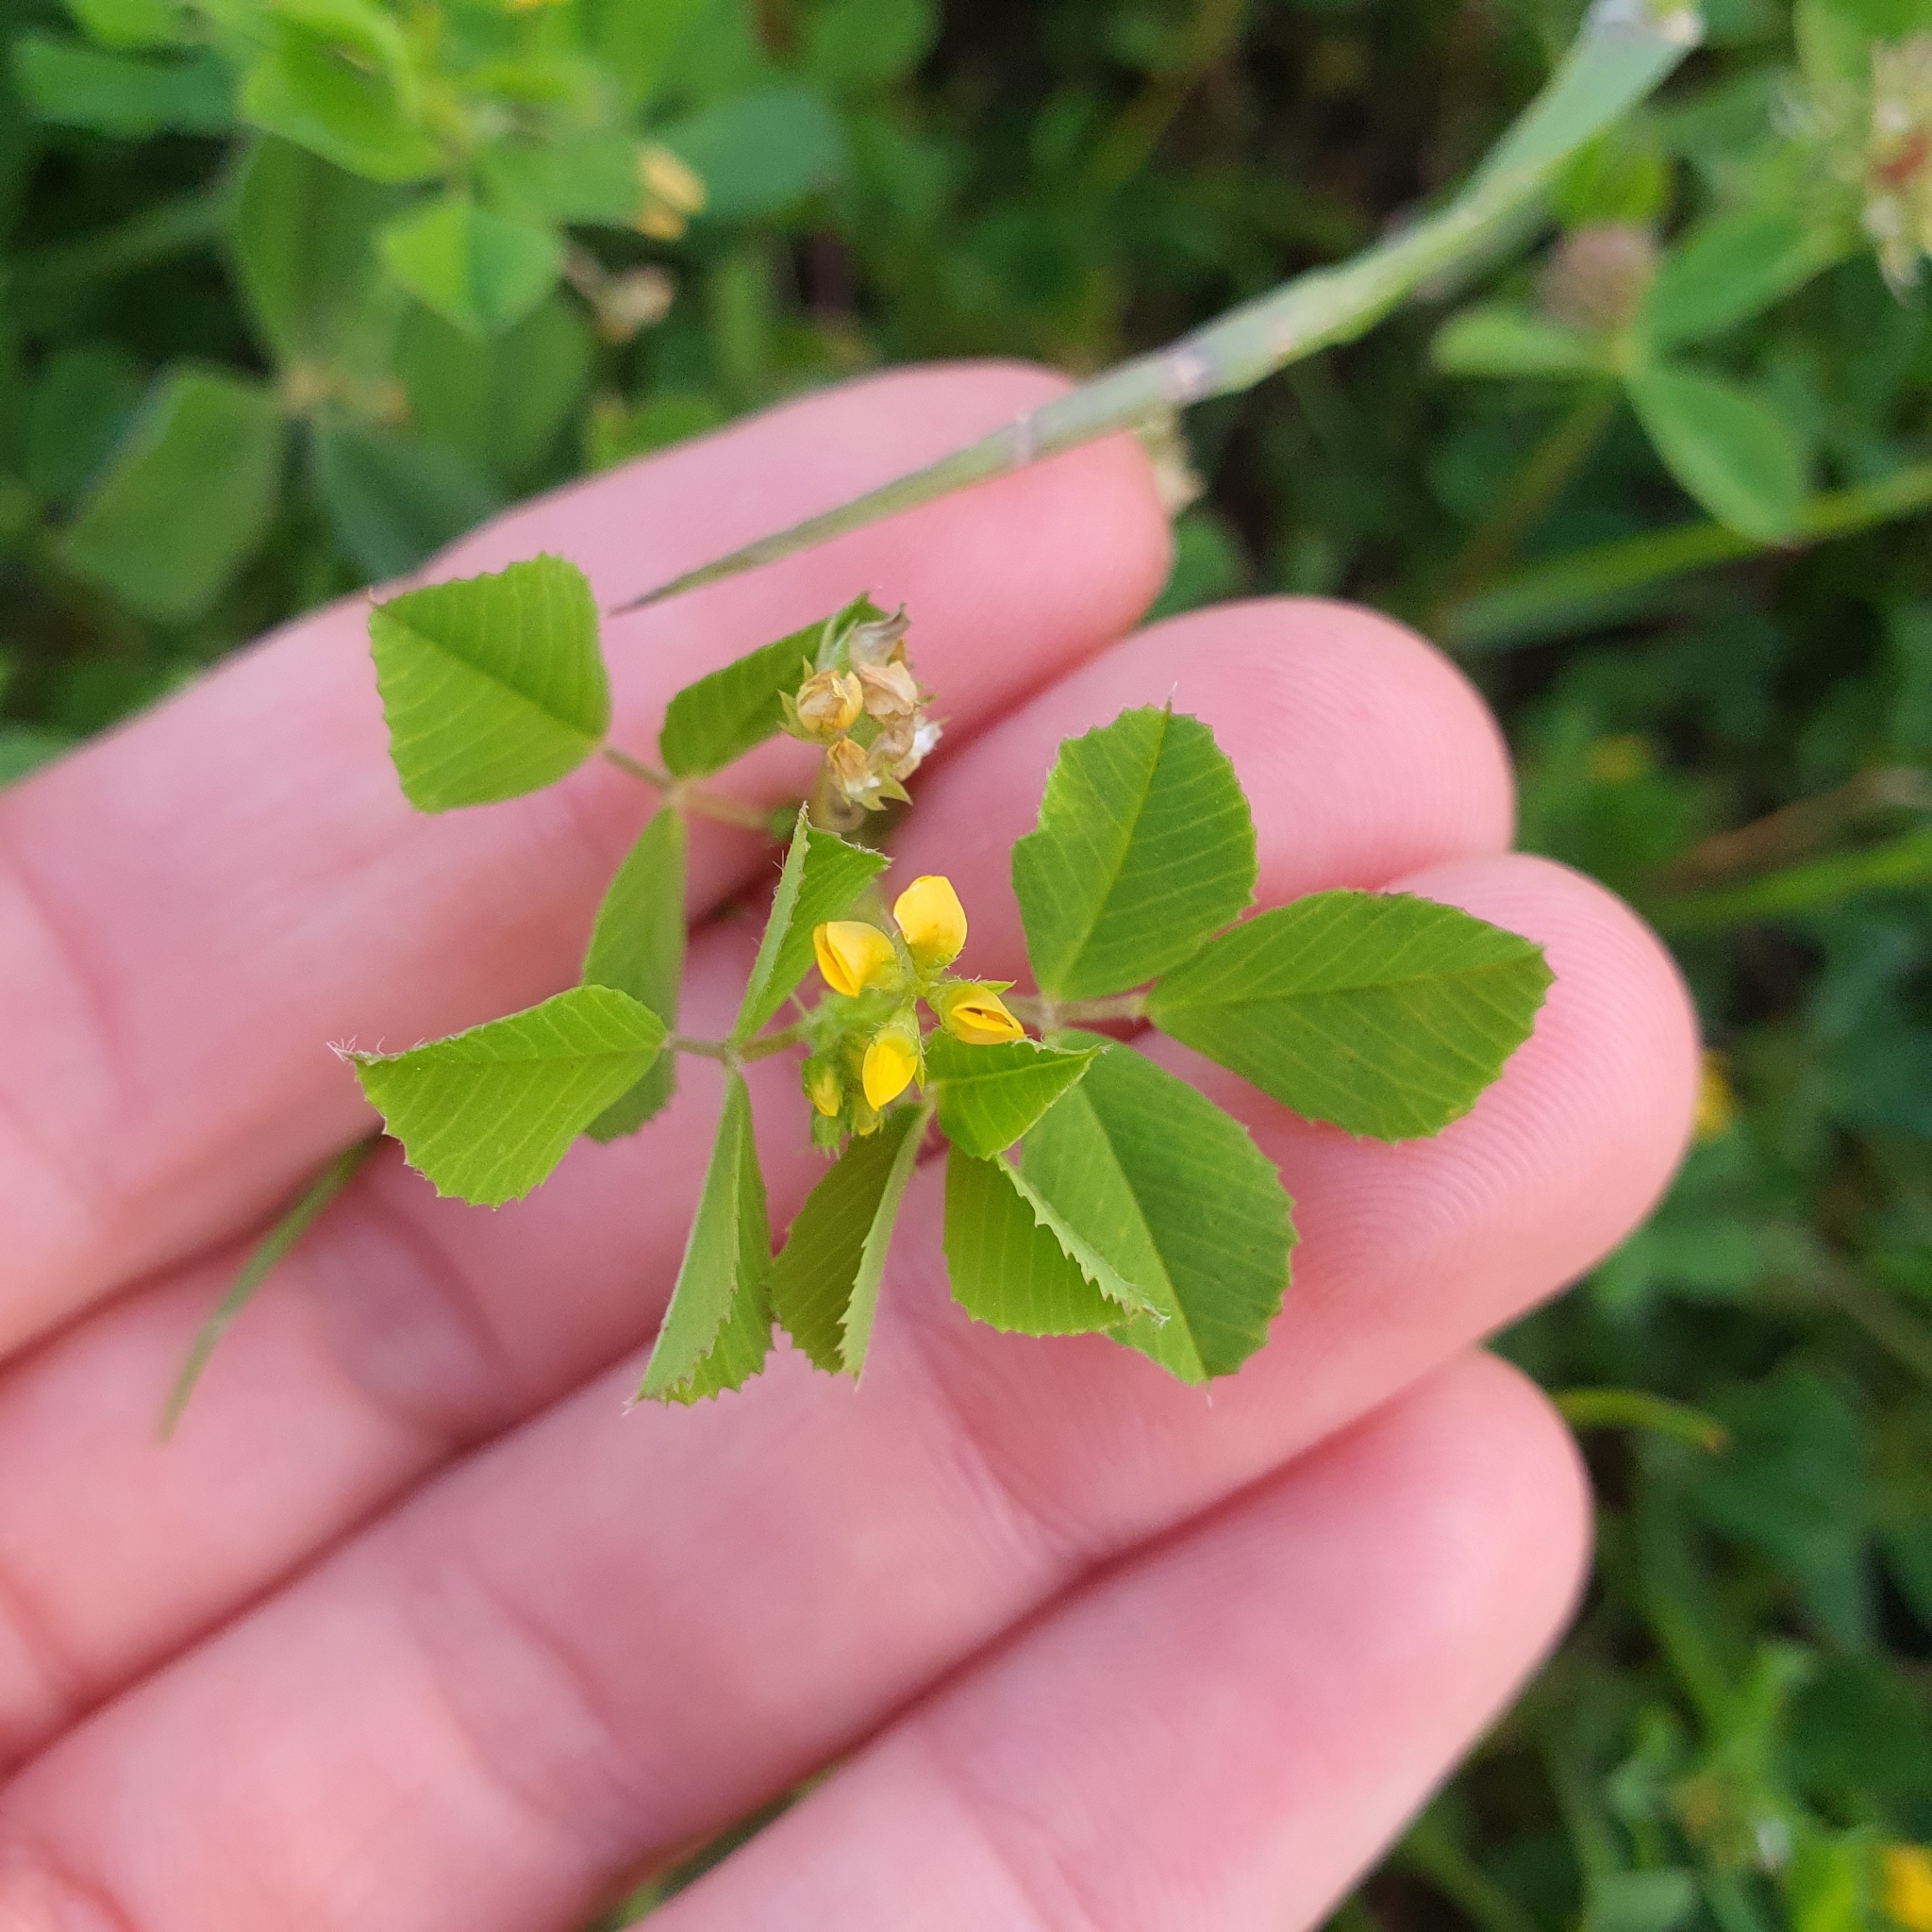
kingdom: Plantae
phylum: Tracheophyta
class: Magnoliopsida
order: Fabales
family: Fabaceae
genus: Medicago
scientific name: Medicago polymorpha
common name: Burclover
